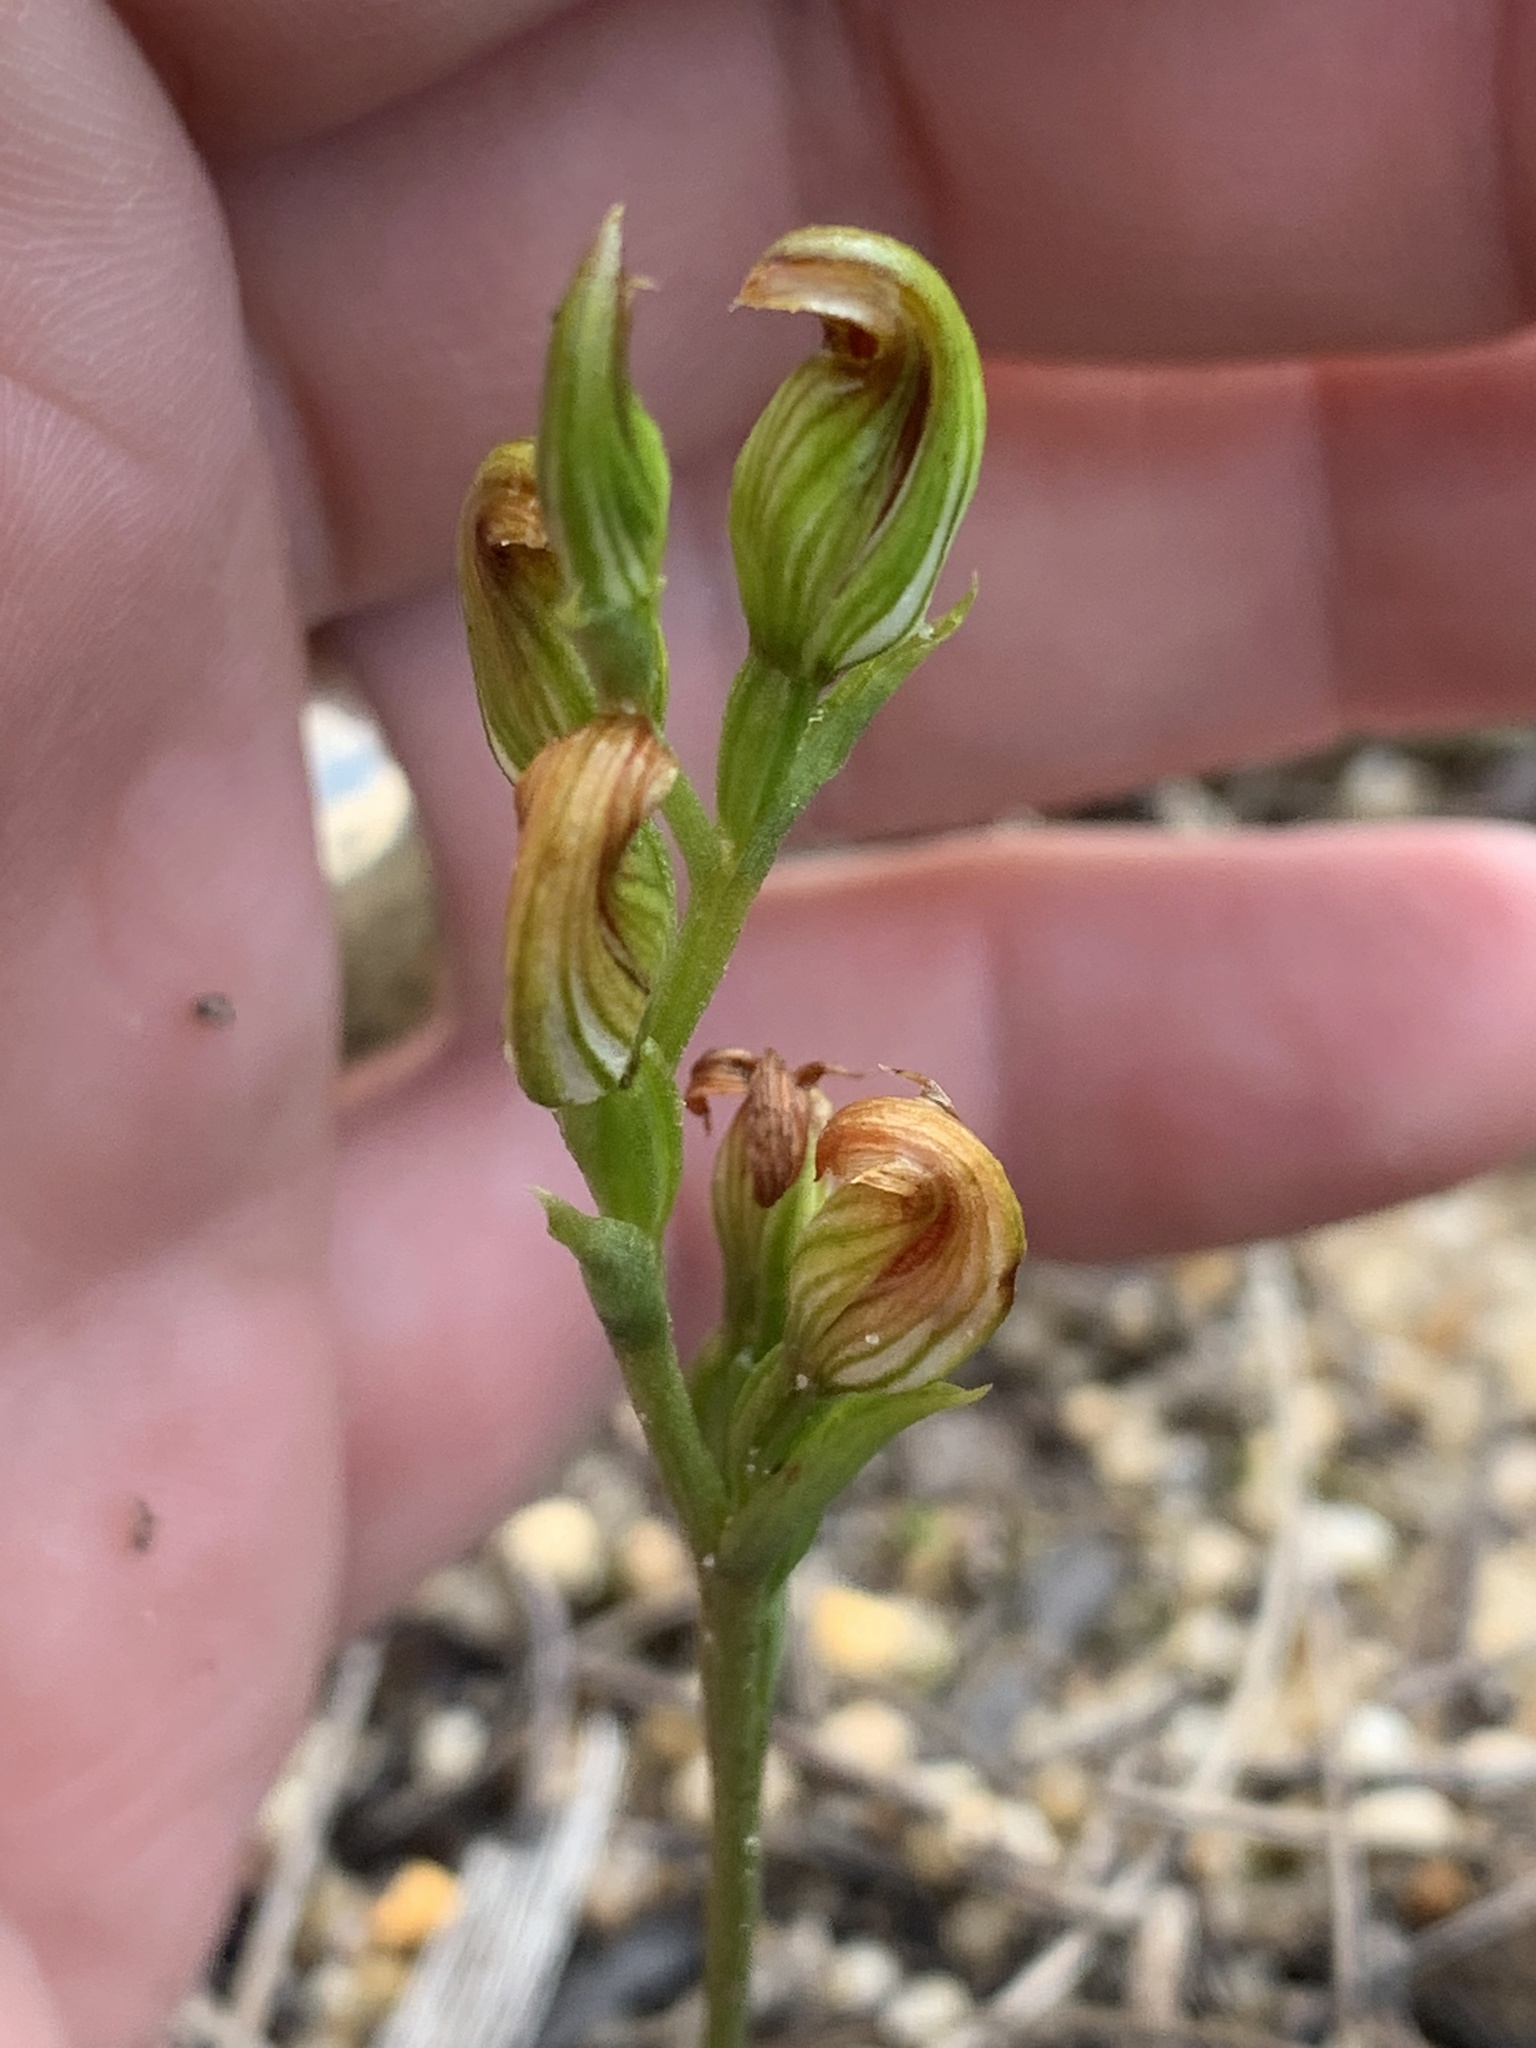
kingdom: Plantae
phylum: Tracheophyta
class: Liliopsida
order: Asparagales
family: Orchidaceae
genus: Pterostylis
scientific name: Pterostylis crebra
